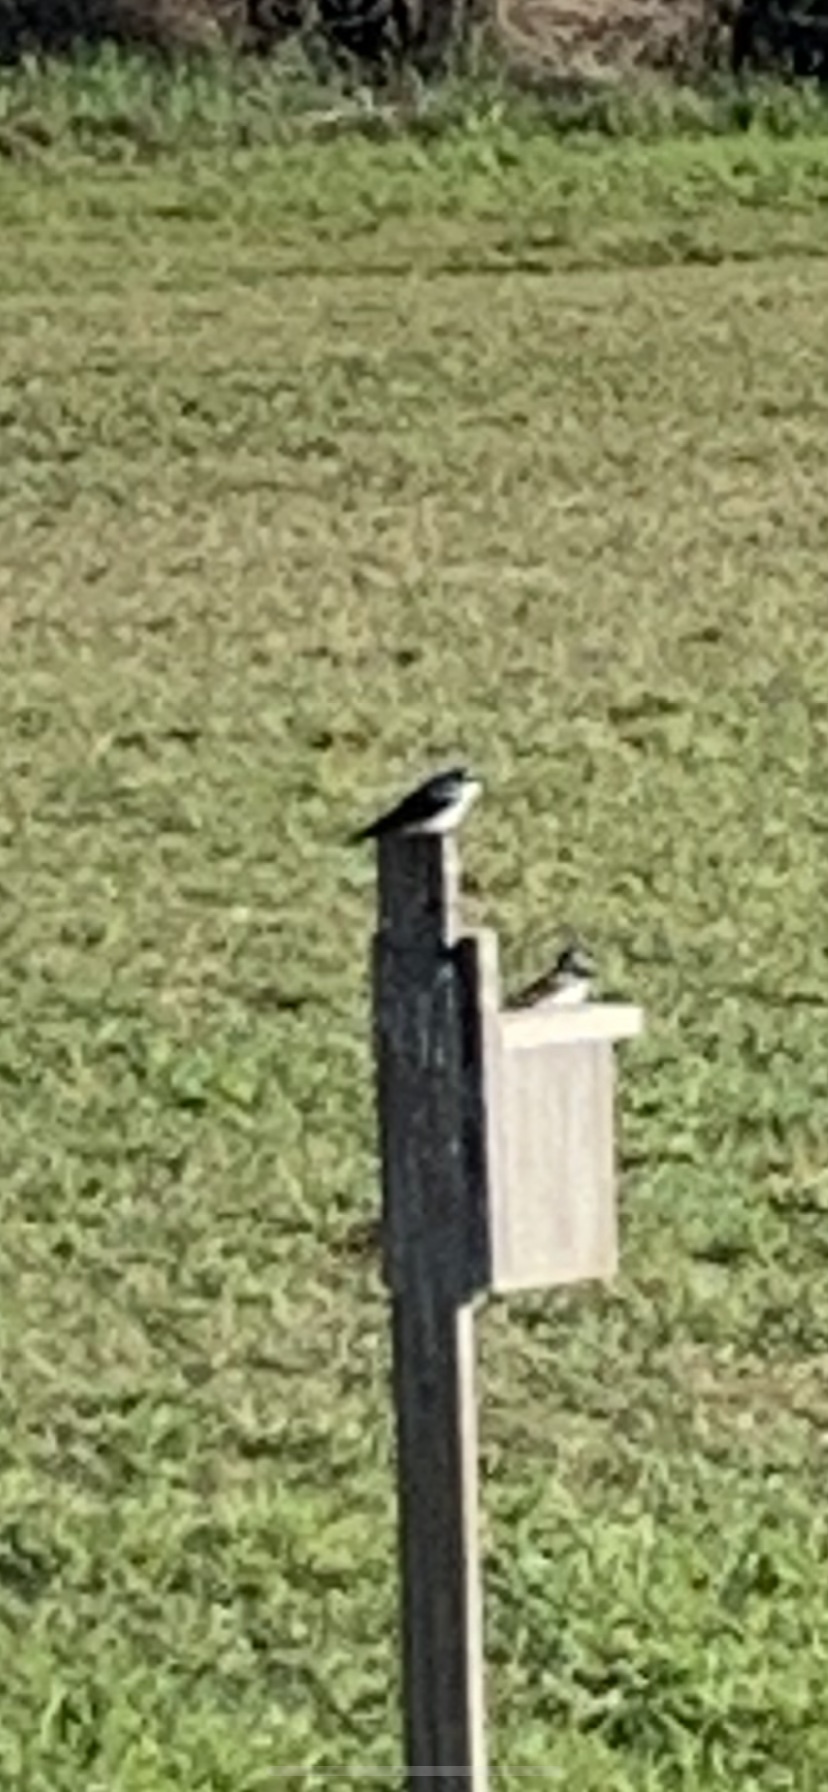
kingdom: Animalia
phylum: Chordata
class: Aves
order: Passeriformes
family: Hirundinidae
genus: Tachycineta
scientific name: Tachycineta bicolor
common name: Tree swallow
